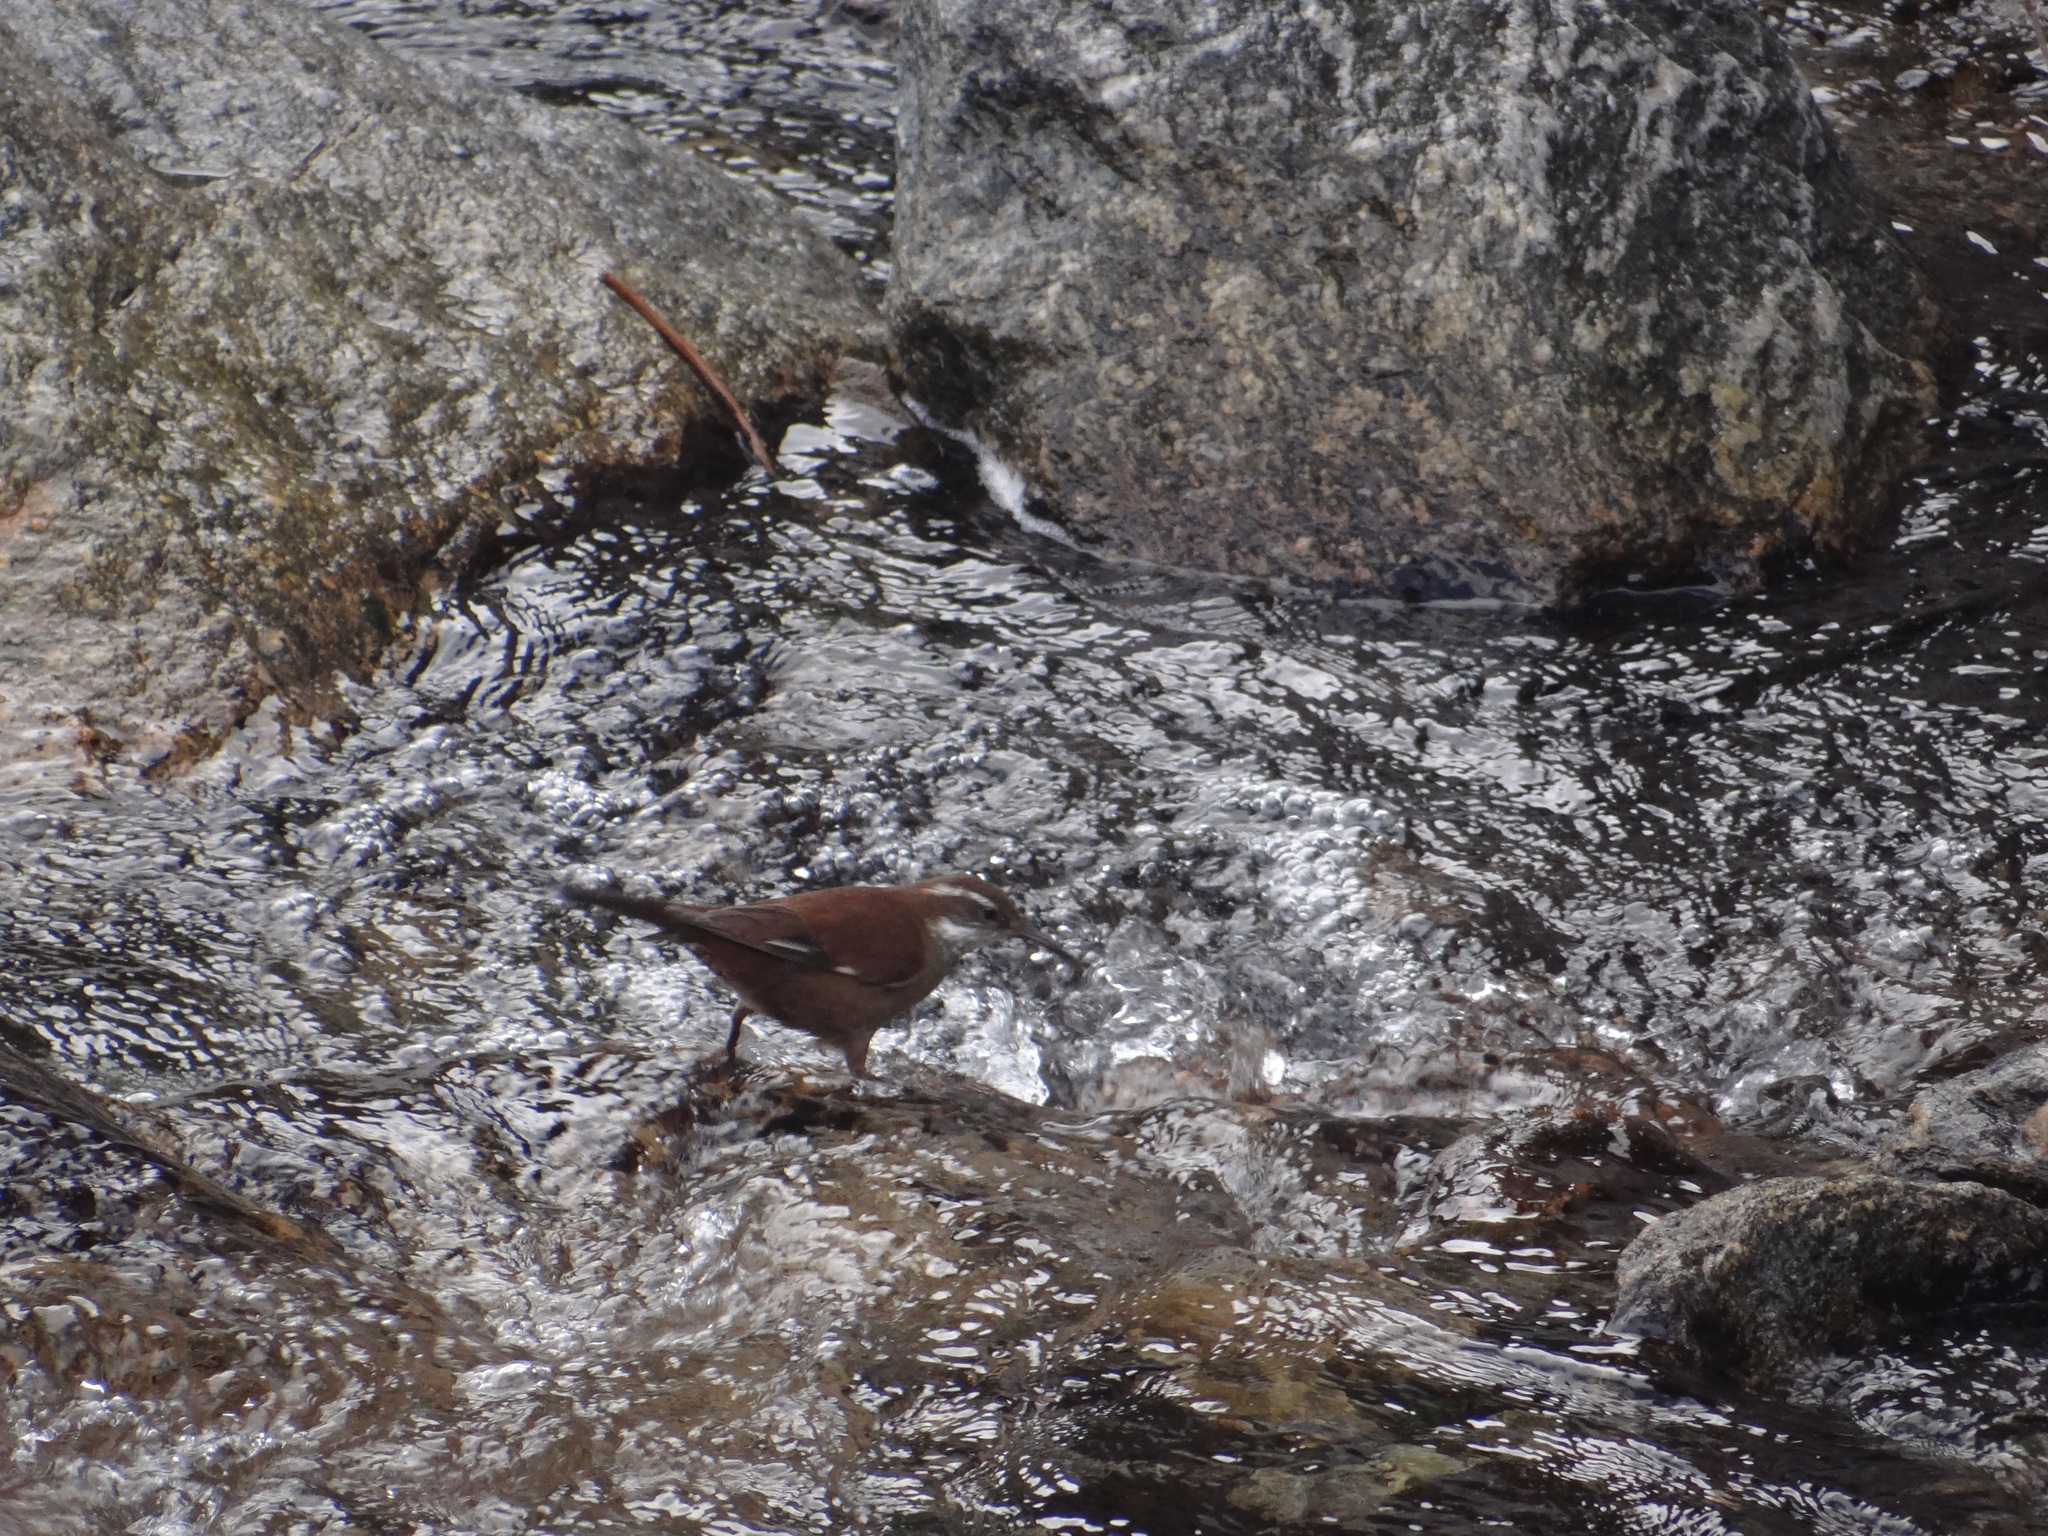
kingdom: Animalia
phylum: Chordata
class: Aves
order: Passeriformes
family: Furnariidae
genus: Cinclodes
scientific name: Cinclodes atacamensis
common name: White-winged cinclodes
